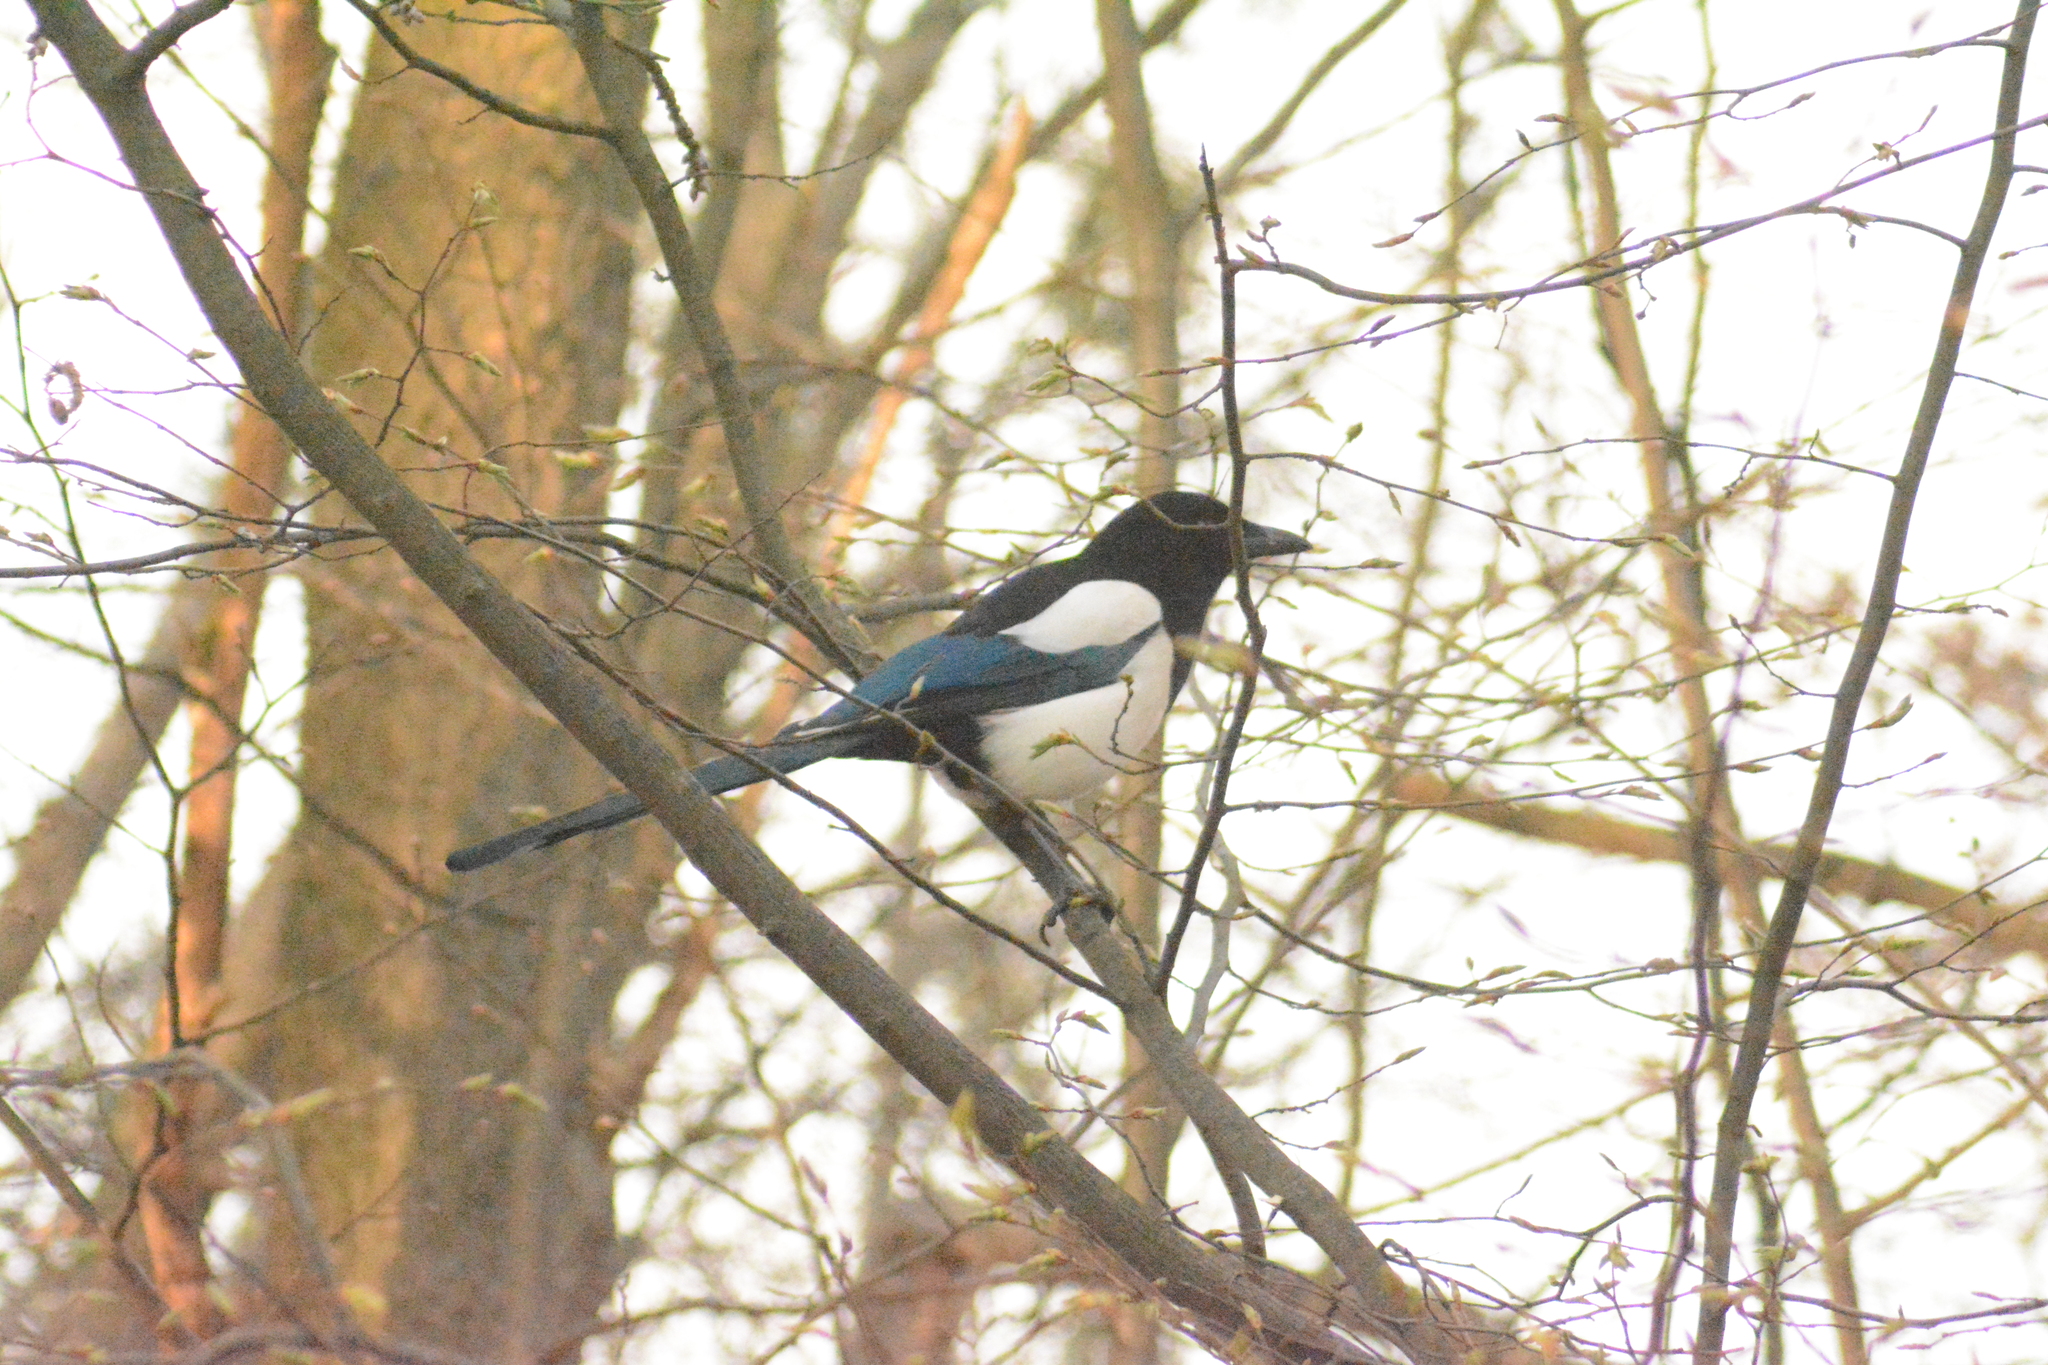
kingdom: Animalia
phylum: Chordata
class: Aves
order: Passeriformes
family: Corvidae
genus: Pica
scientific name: Pica pica
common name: Eurasian magpie
